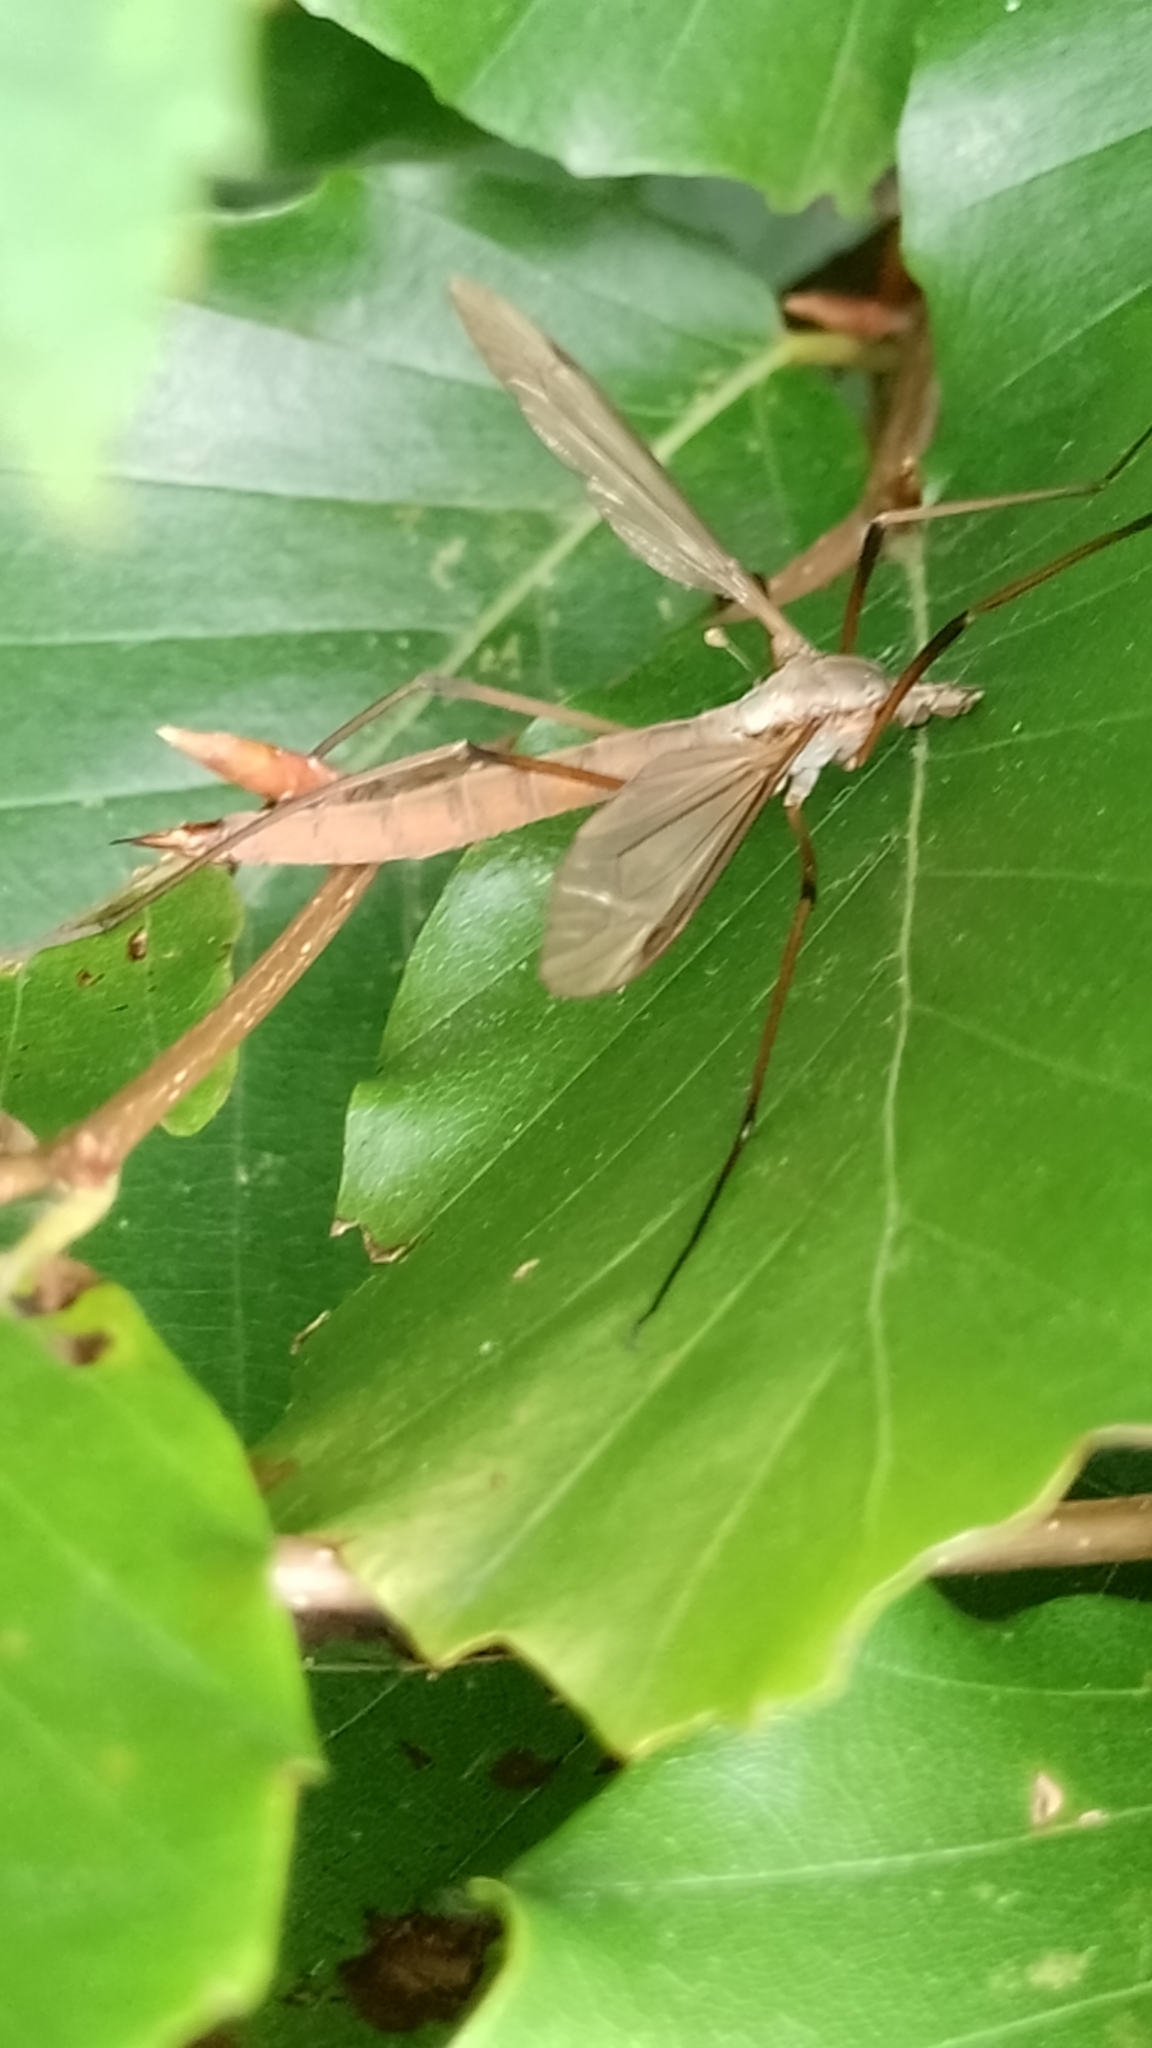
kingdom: Animalia
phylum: Arthropoda
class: Insecta
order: Diptera
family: Tipulidae
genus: Tipula
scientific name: Tipula paludosa
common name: European cranefly
